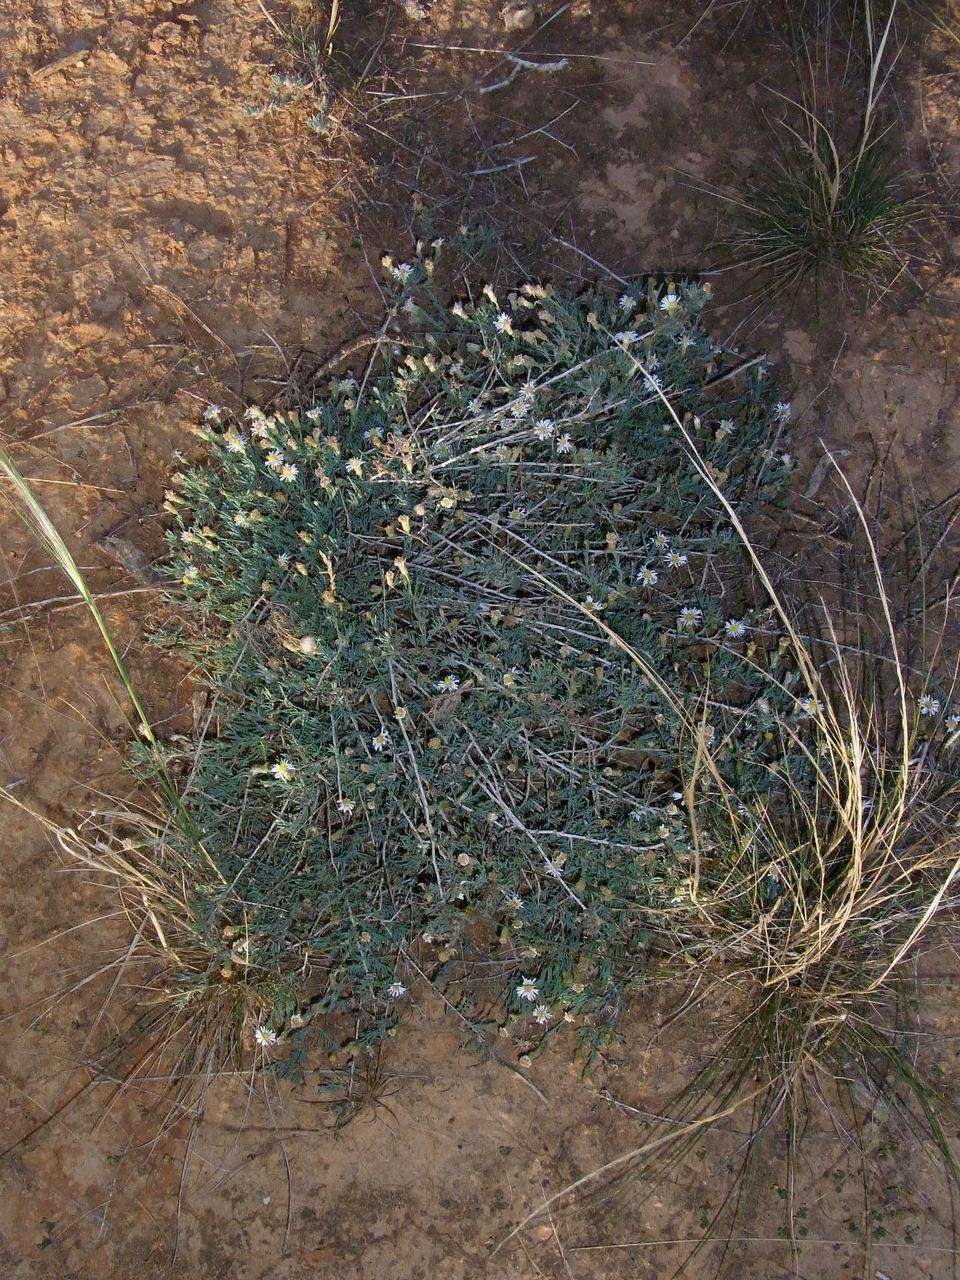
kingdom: Plantae
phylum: Tracheophyta
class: Magnoliopsida
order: Asterales
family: Asteraceae
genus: Minuria
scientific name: Minuria cunninghamii
